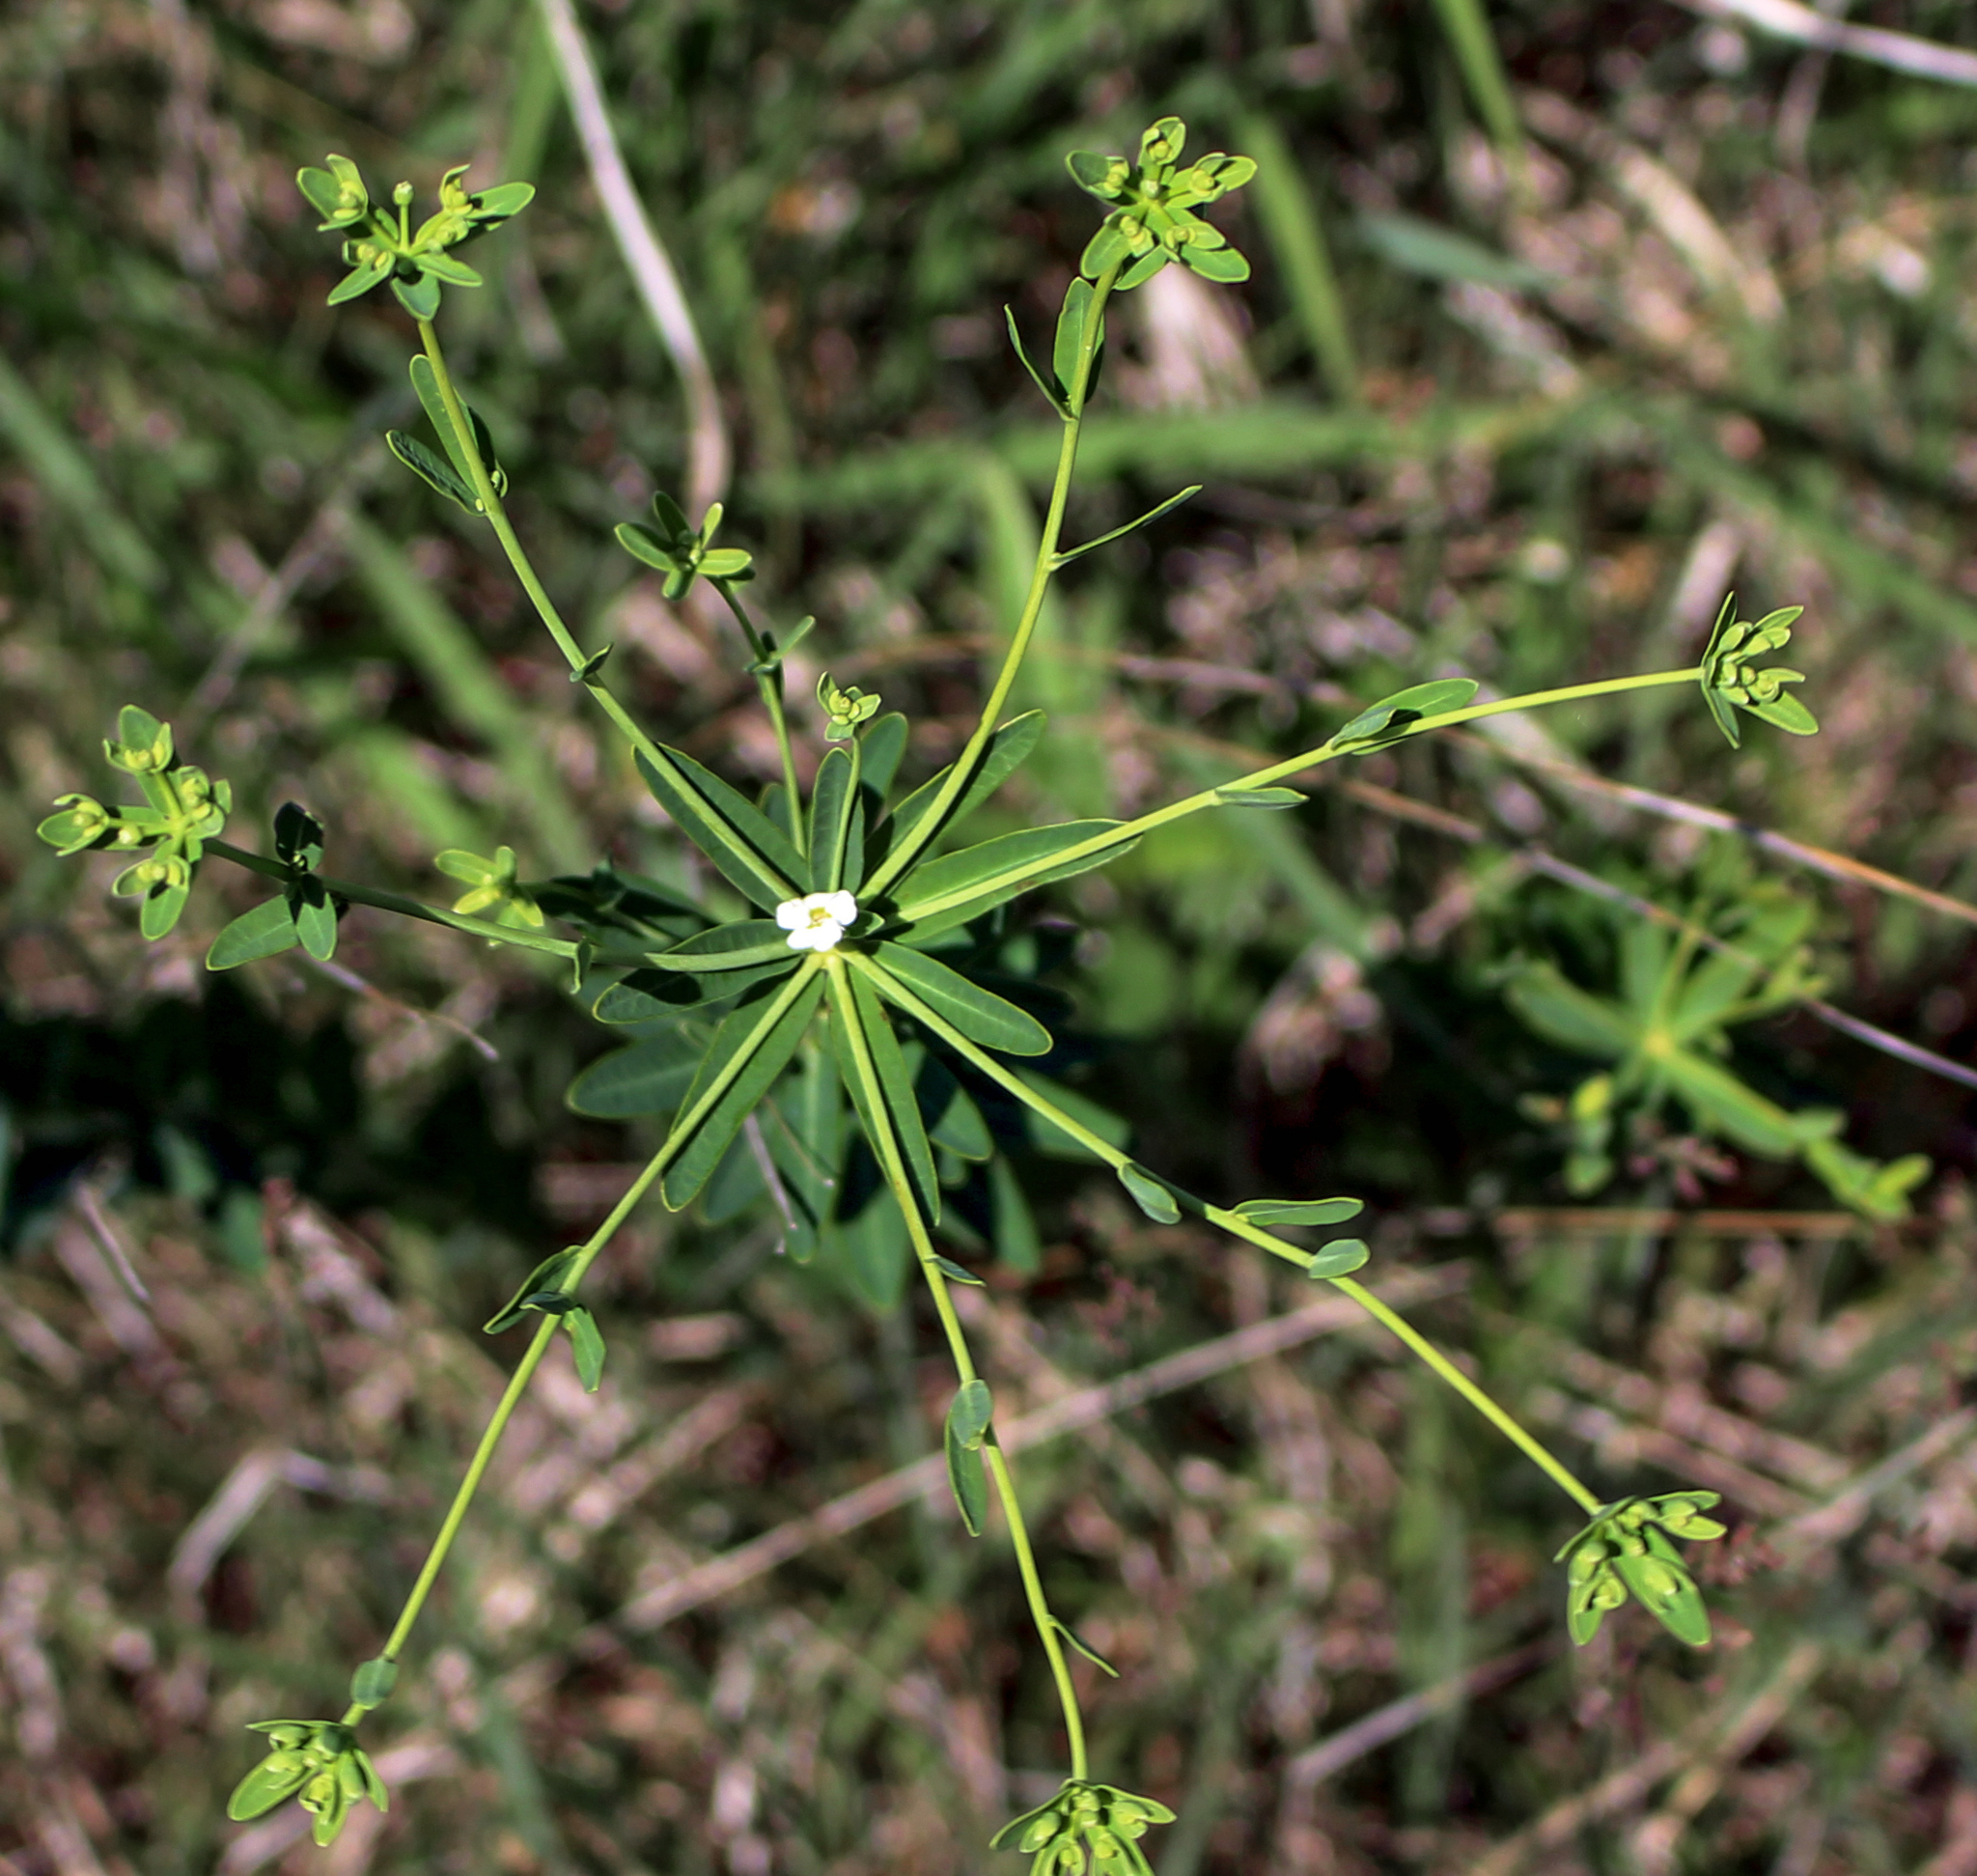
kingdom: Plantae
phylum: Tracheophyta
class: Magnoliopsida
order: Malpighiales
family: Euphorbiaceae
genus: Euphorbia
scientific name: Euphorbia corollata
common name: Flowering spurge
